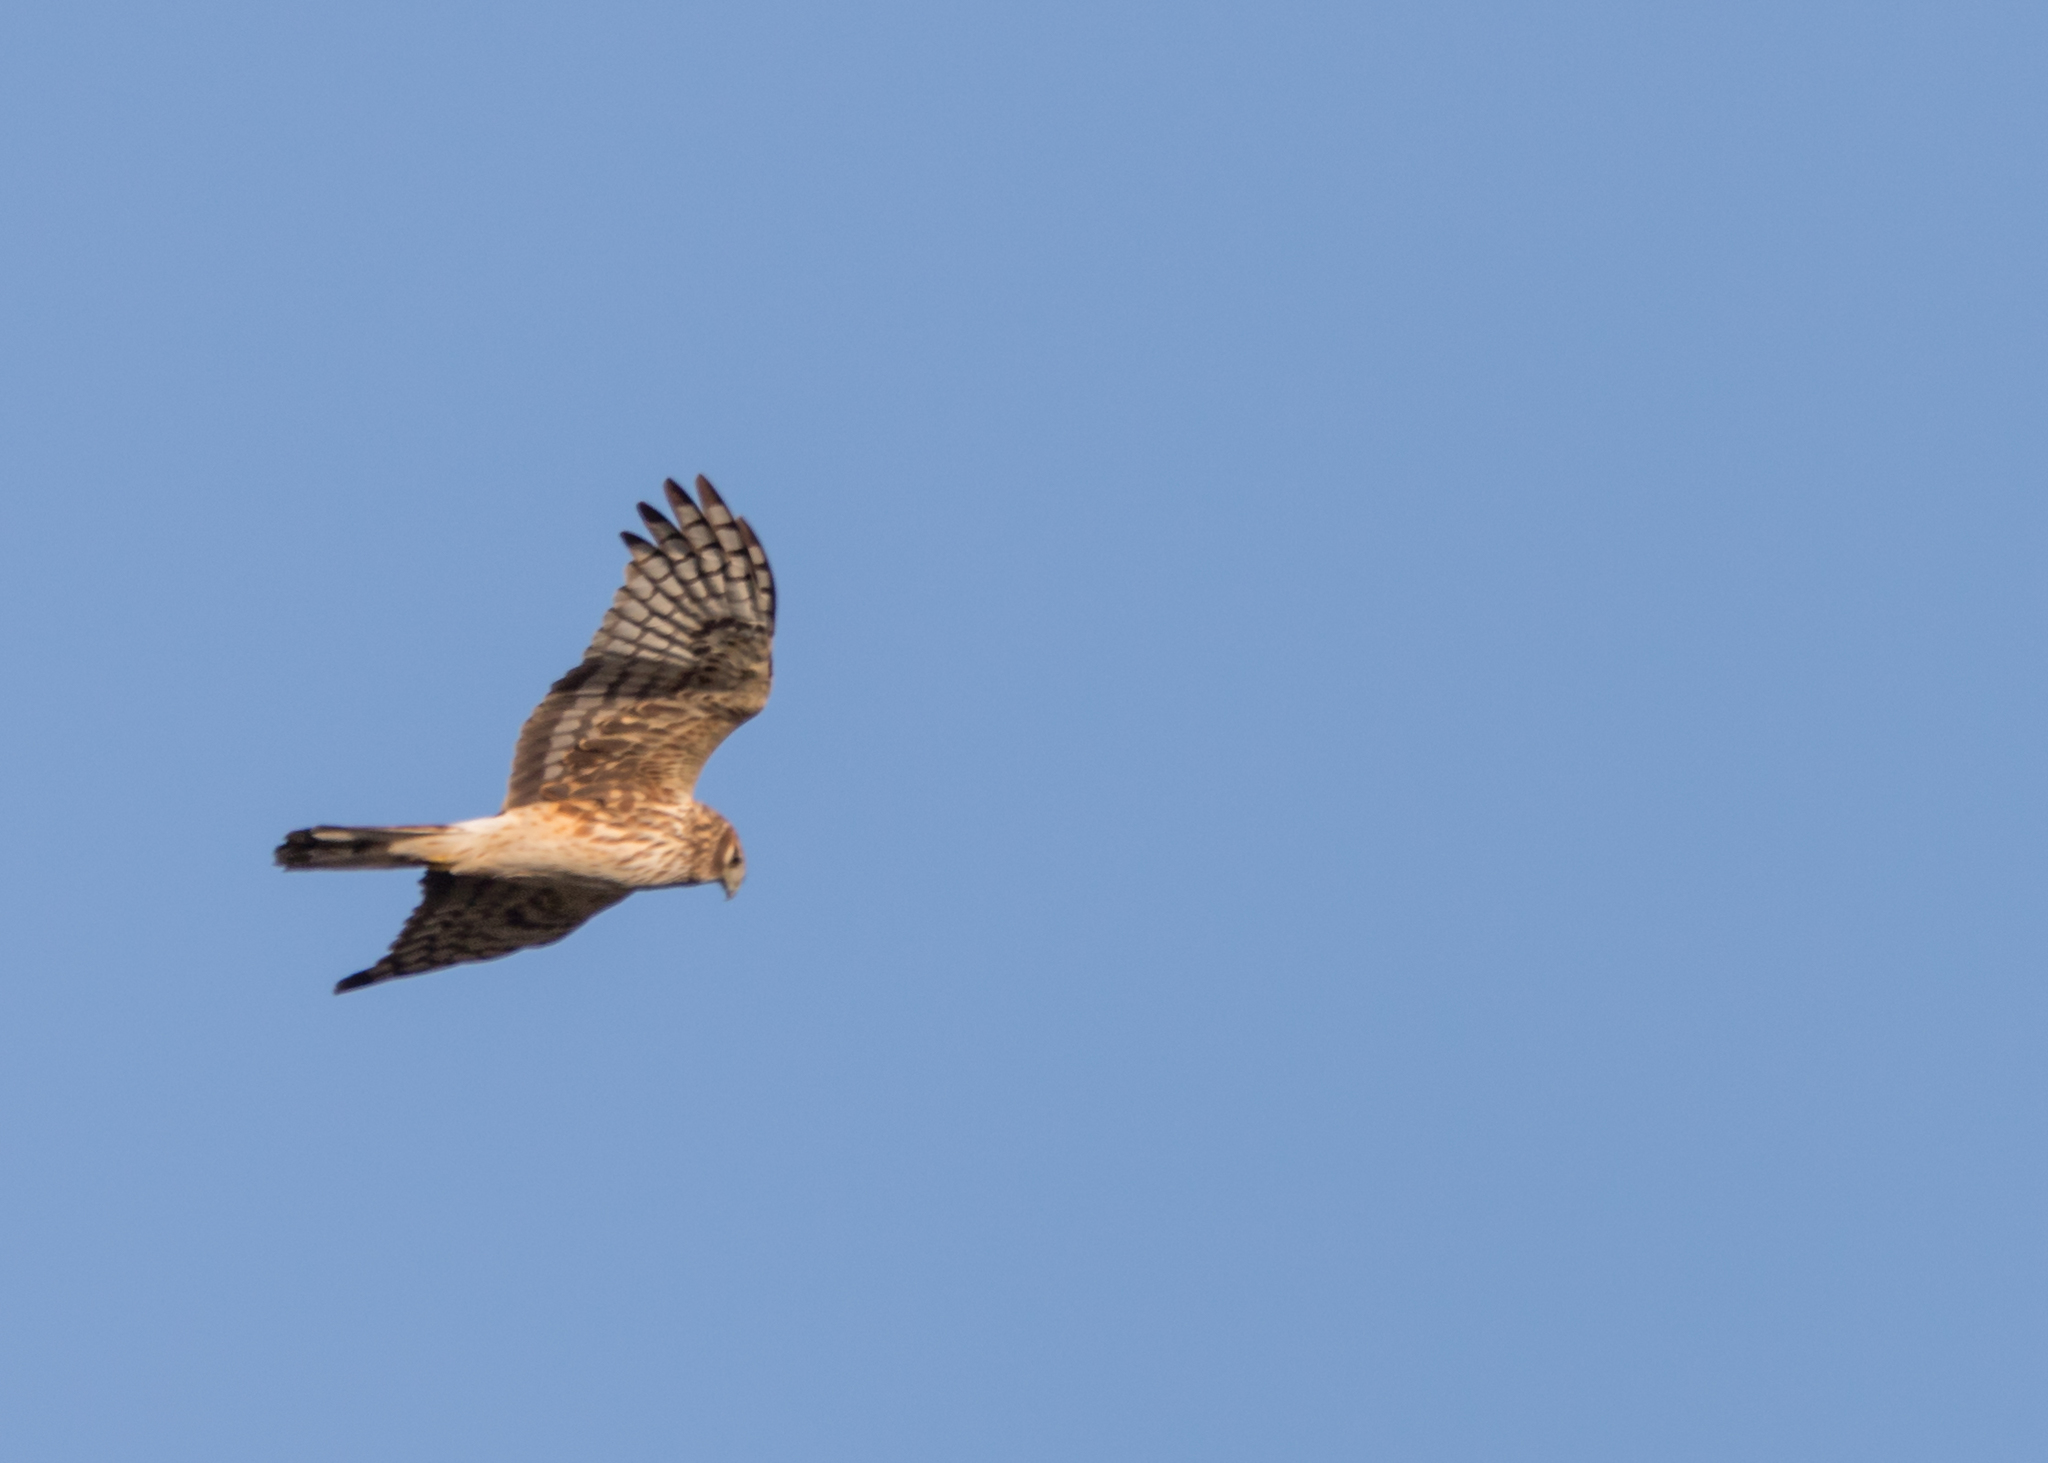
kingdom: Animalia
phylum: Chordata
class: Aves
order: Accipitriformes
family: Accipitridae
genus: Circus
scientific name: Circus cyaneus
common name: Hen harrier
